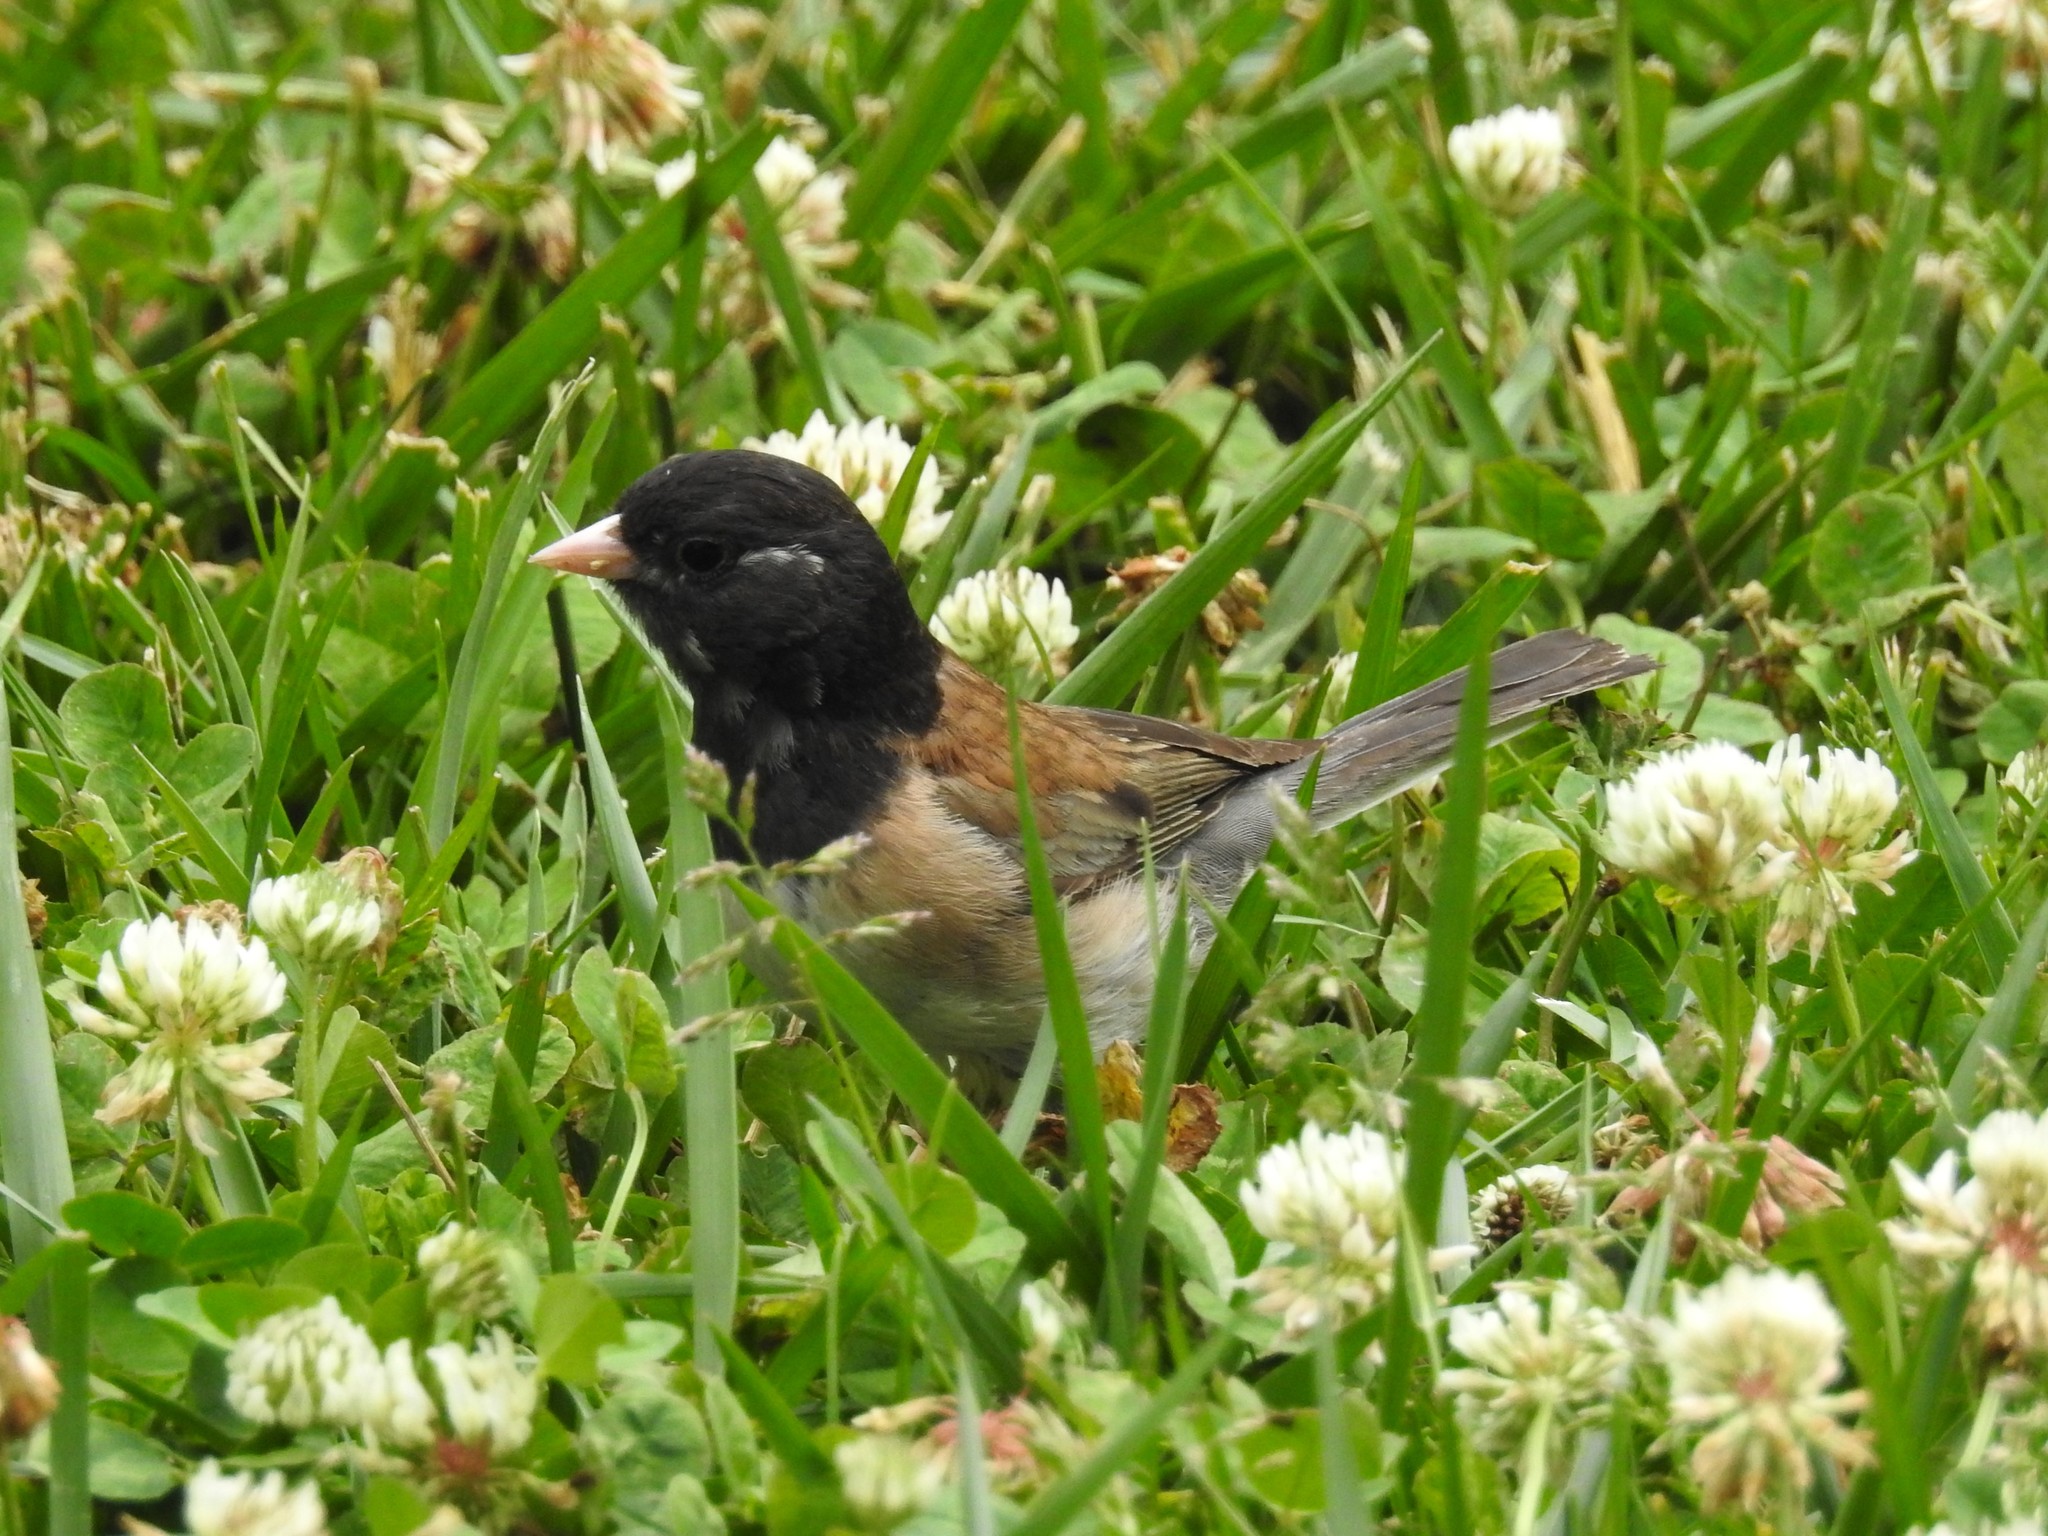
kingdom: Animalia
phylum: Chordata
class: Aves
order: Passeriformes
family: Passerellidae
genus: Junco
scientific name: Junco hyemalis
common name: Dark-eyed junco
